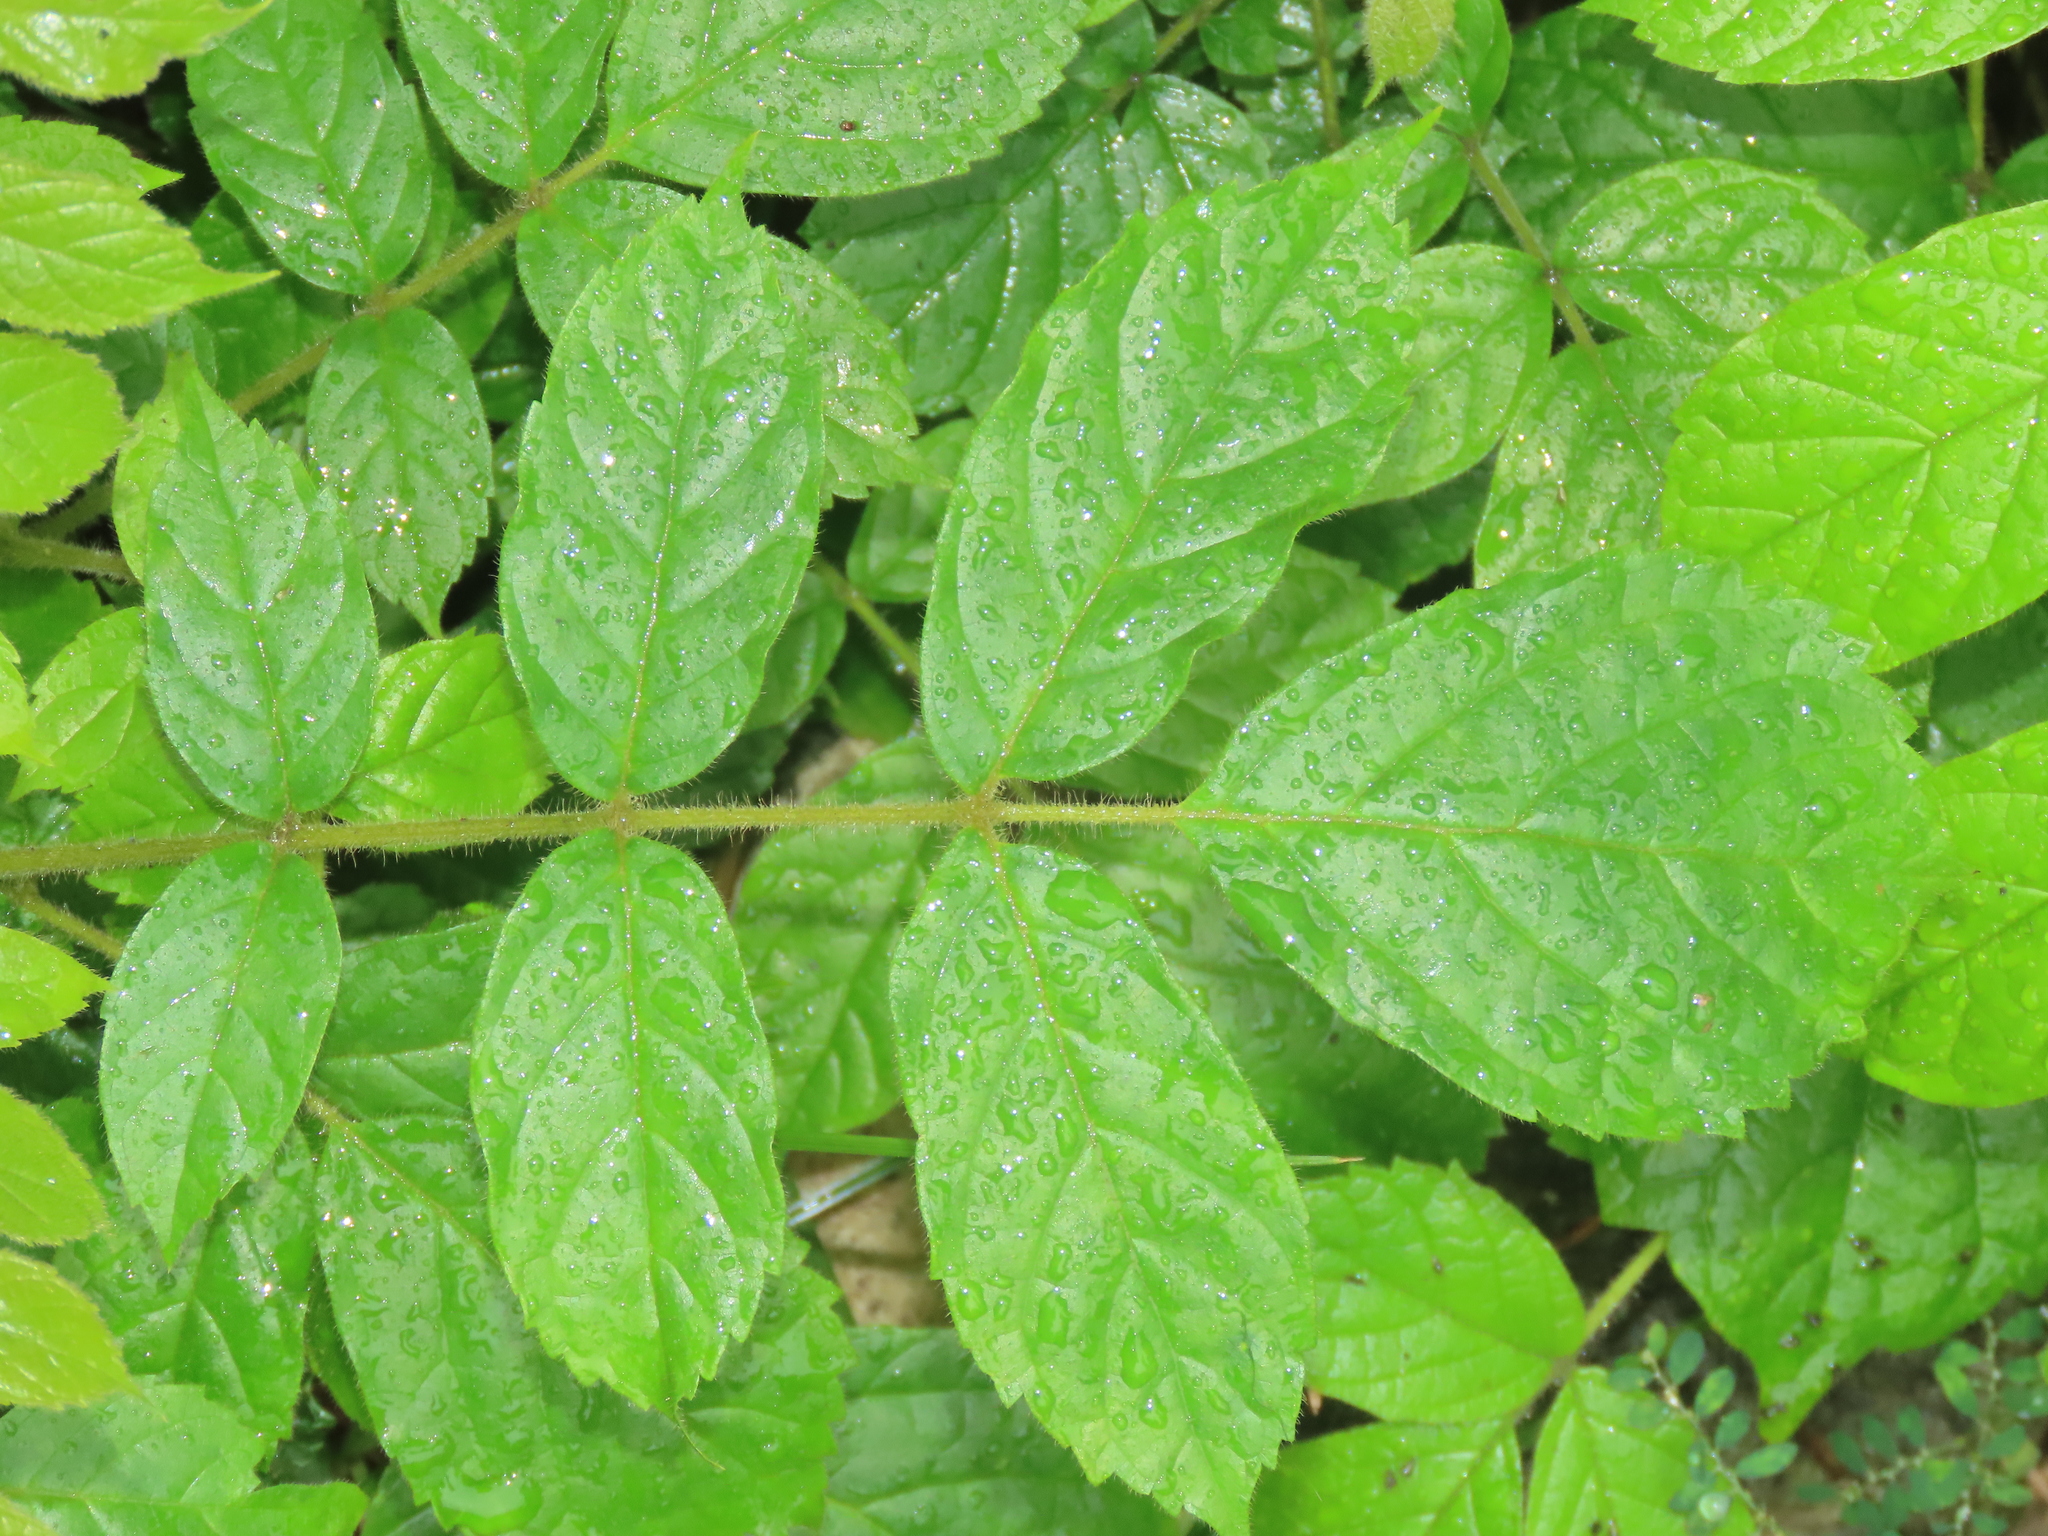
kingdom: Plantae
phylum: Tracheophyta
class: Magnoliopsida
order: Lamiales
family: Bignoniaceae
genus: Spathodea
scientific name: Spathodea campanulata
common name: African tuliptree
